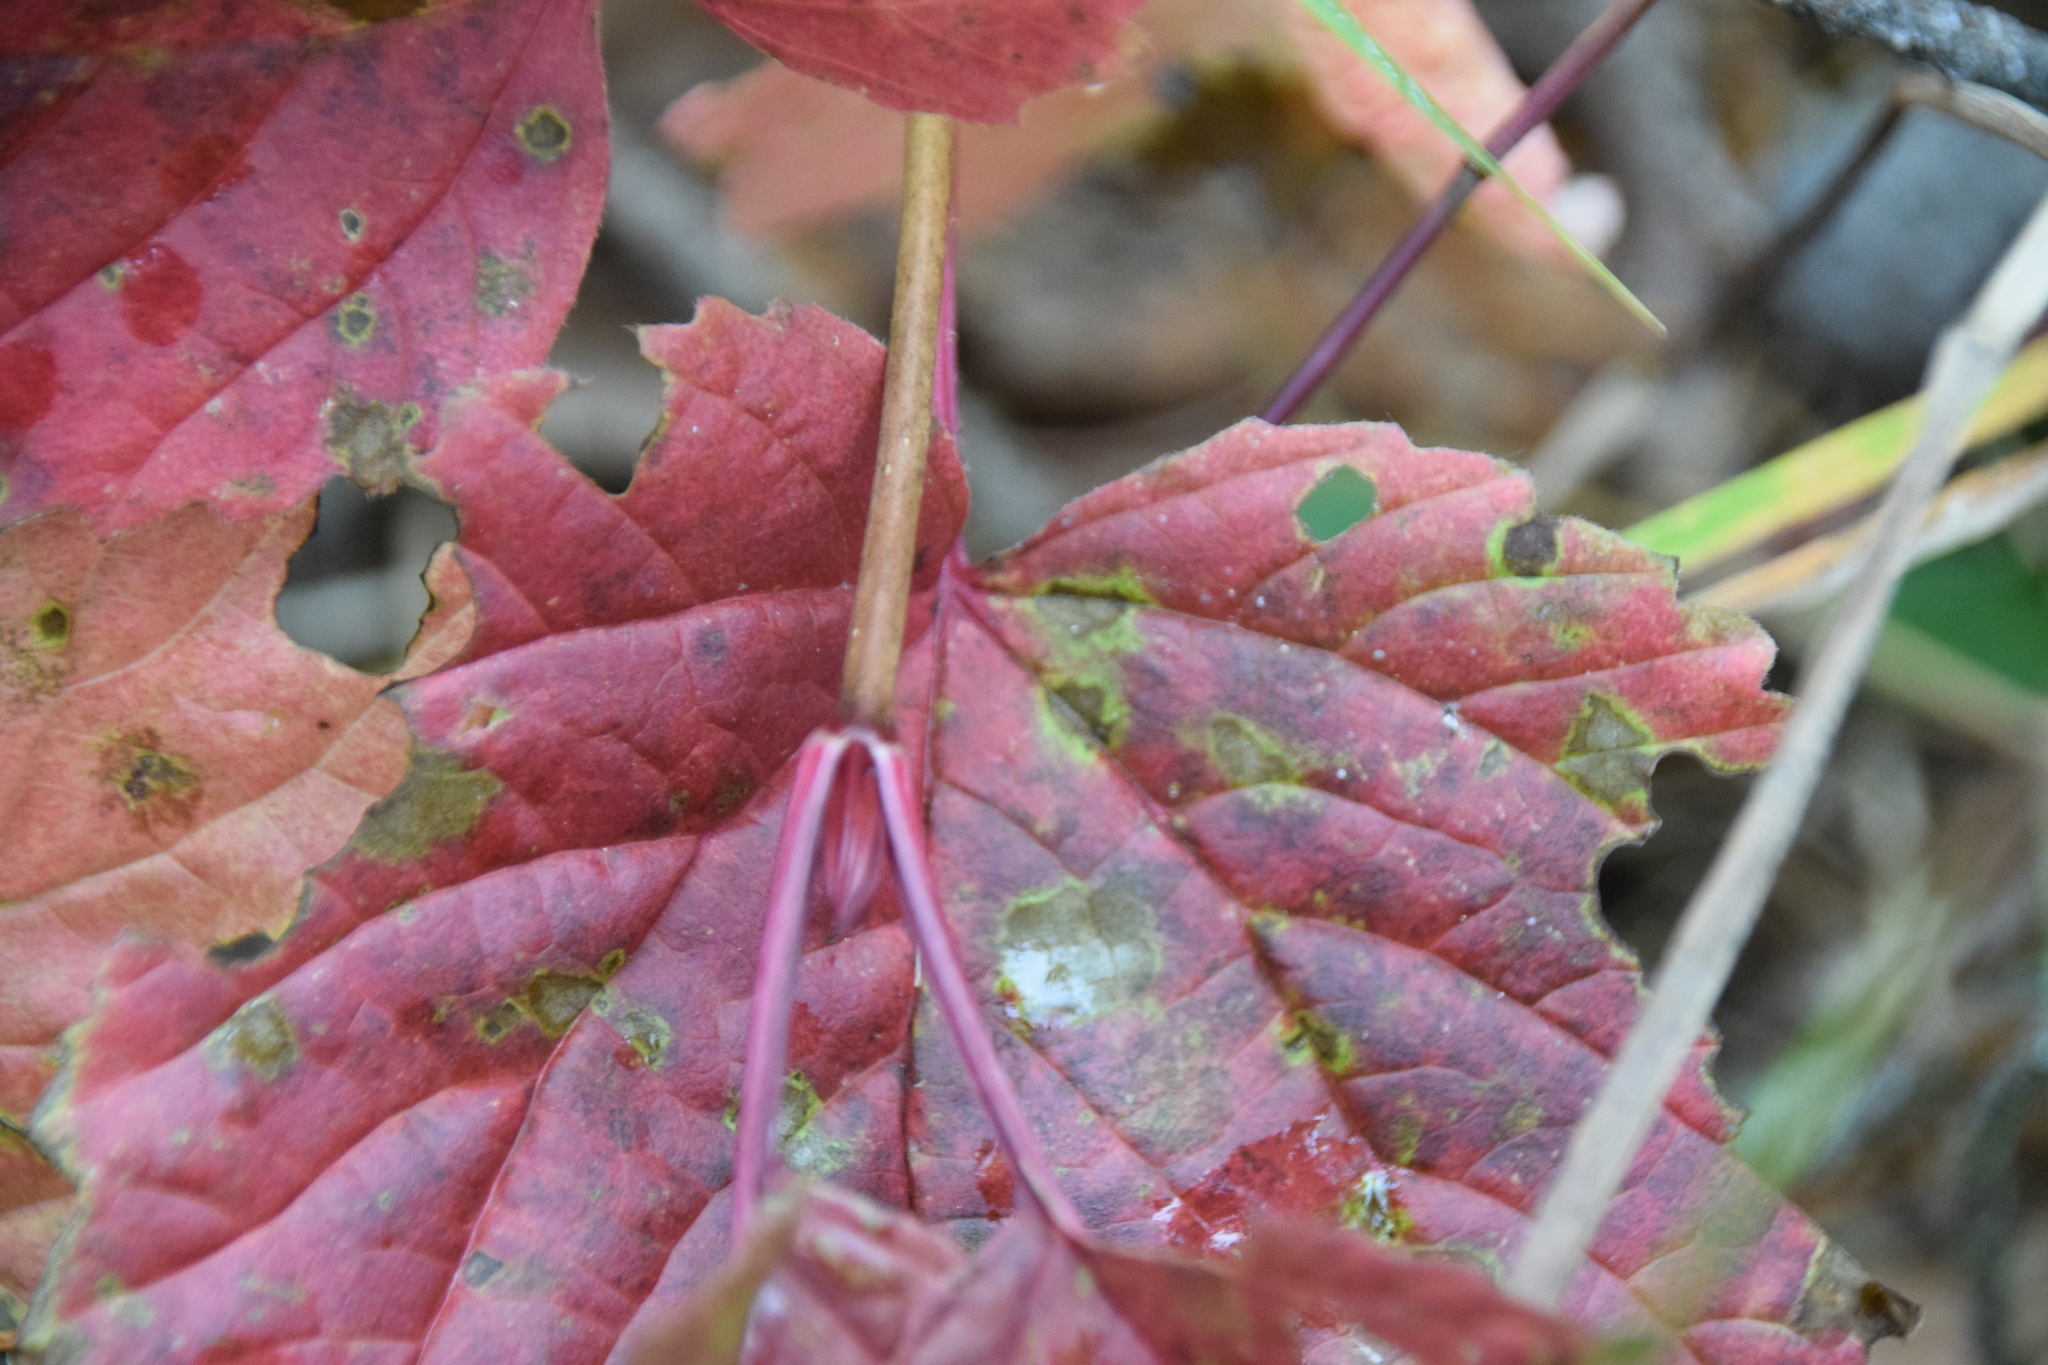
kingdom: Plantae
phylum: Tracheophyta
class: Magnoliopsida
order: Dipsacales
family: Viburnaceae
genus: Viburnum
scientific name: Viburnum edule
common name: Mooseberry
